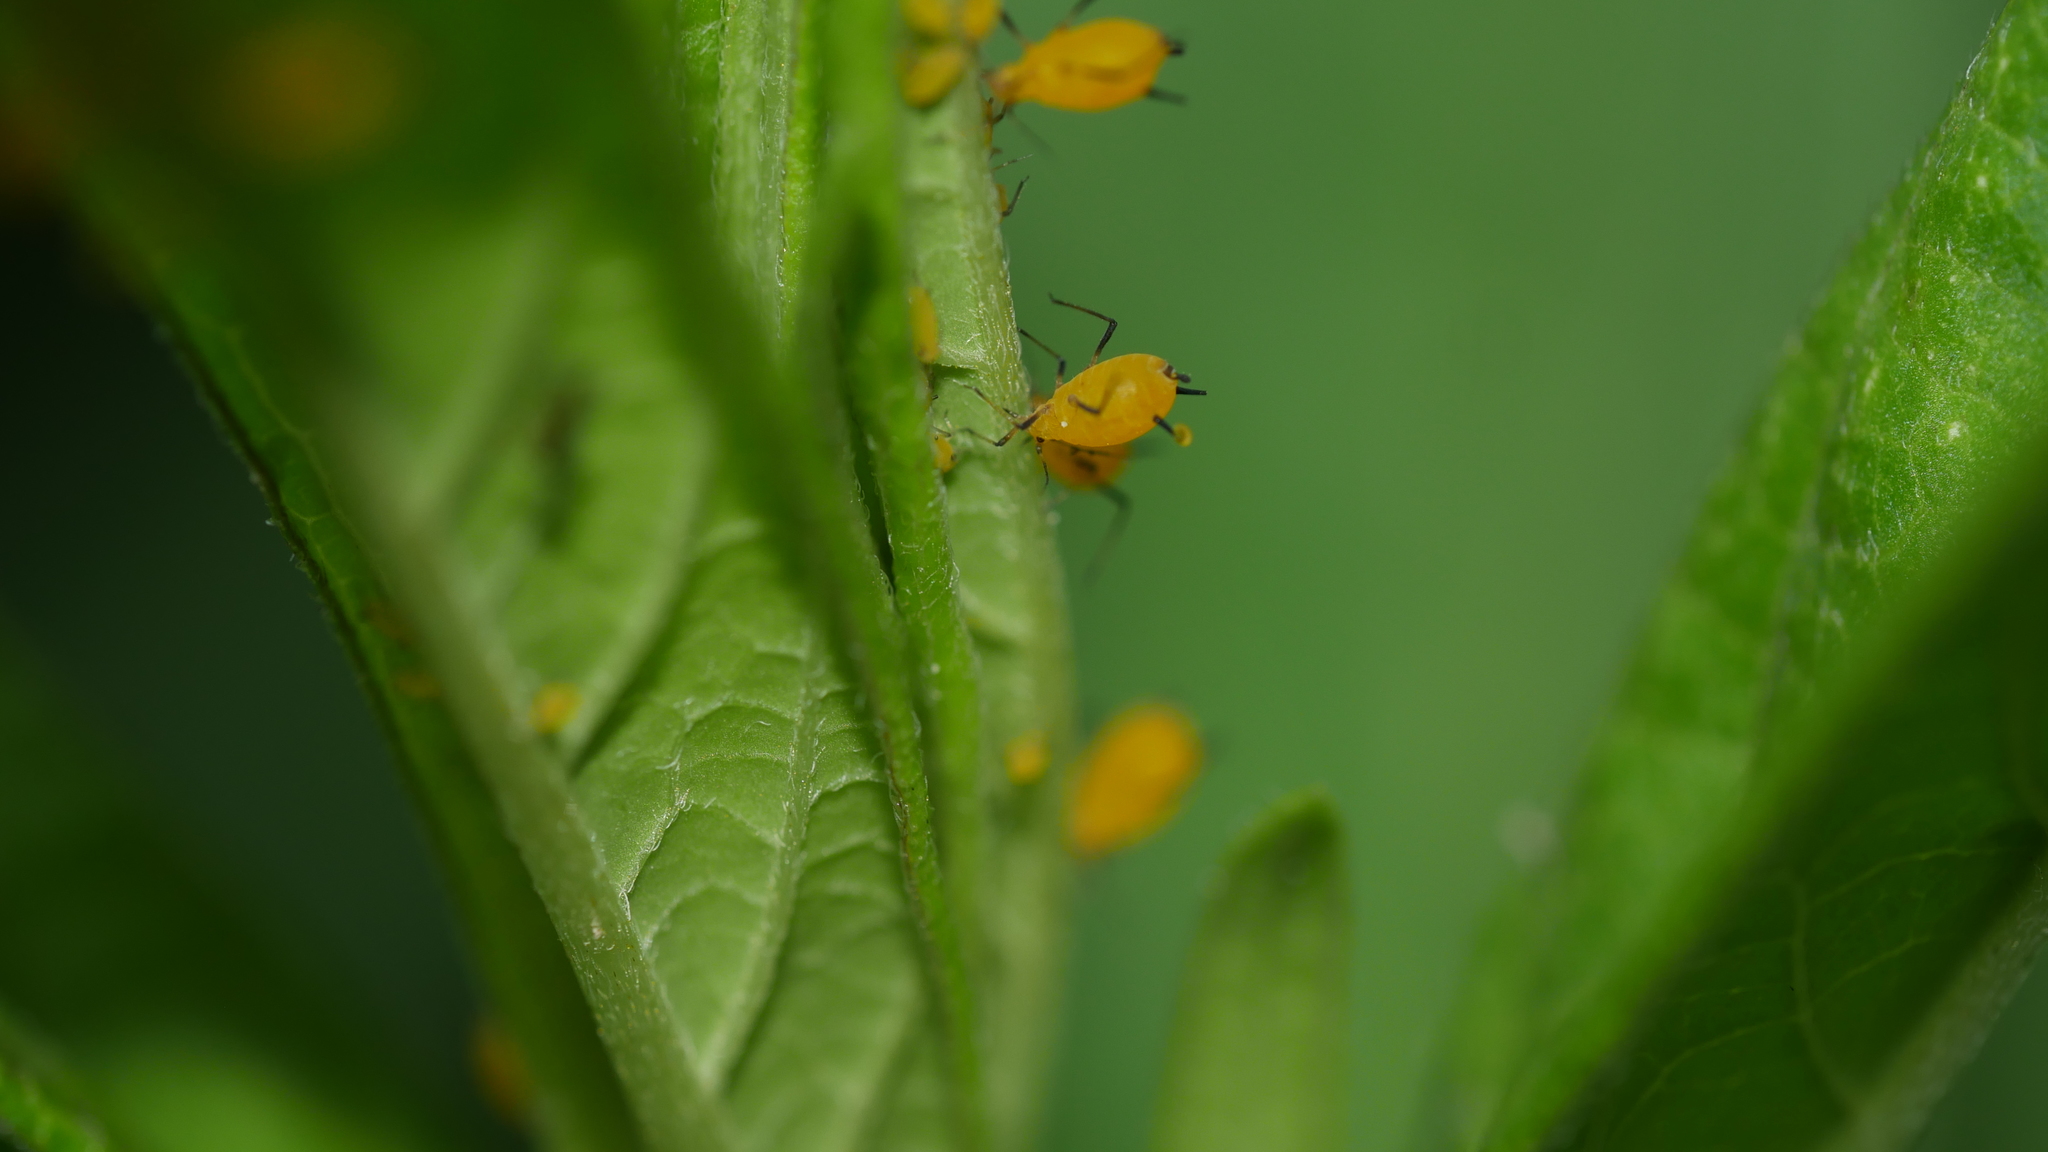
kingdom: Animalia
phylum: Arthropoda
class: Insecta
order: Hemiptera
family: Aphididae
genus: Aphis
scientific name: Aphis nerii
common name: Oleander aphid
